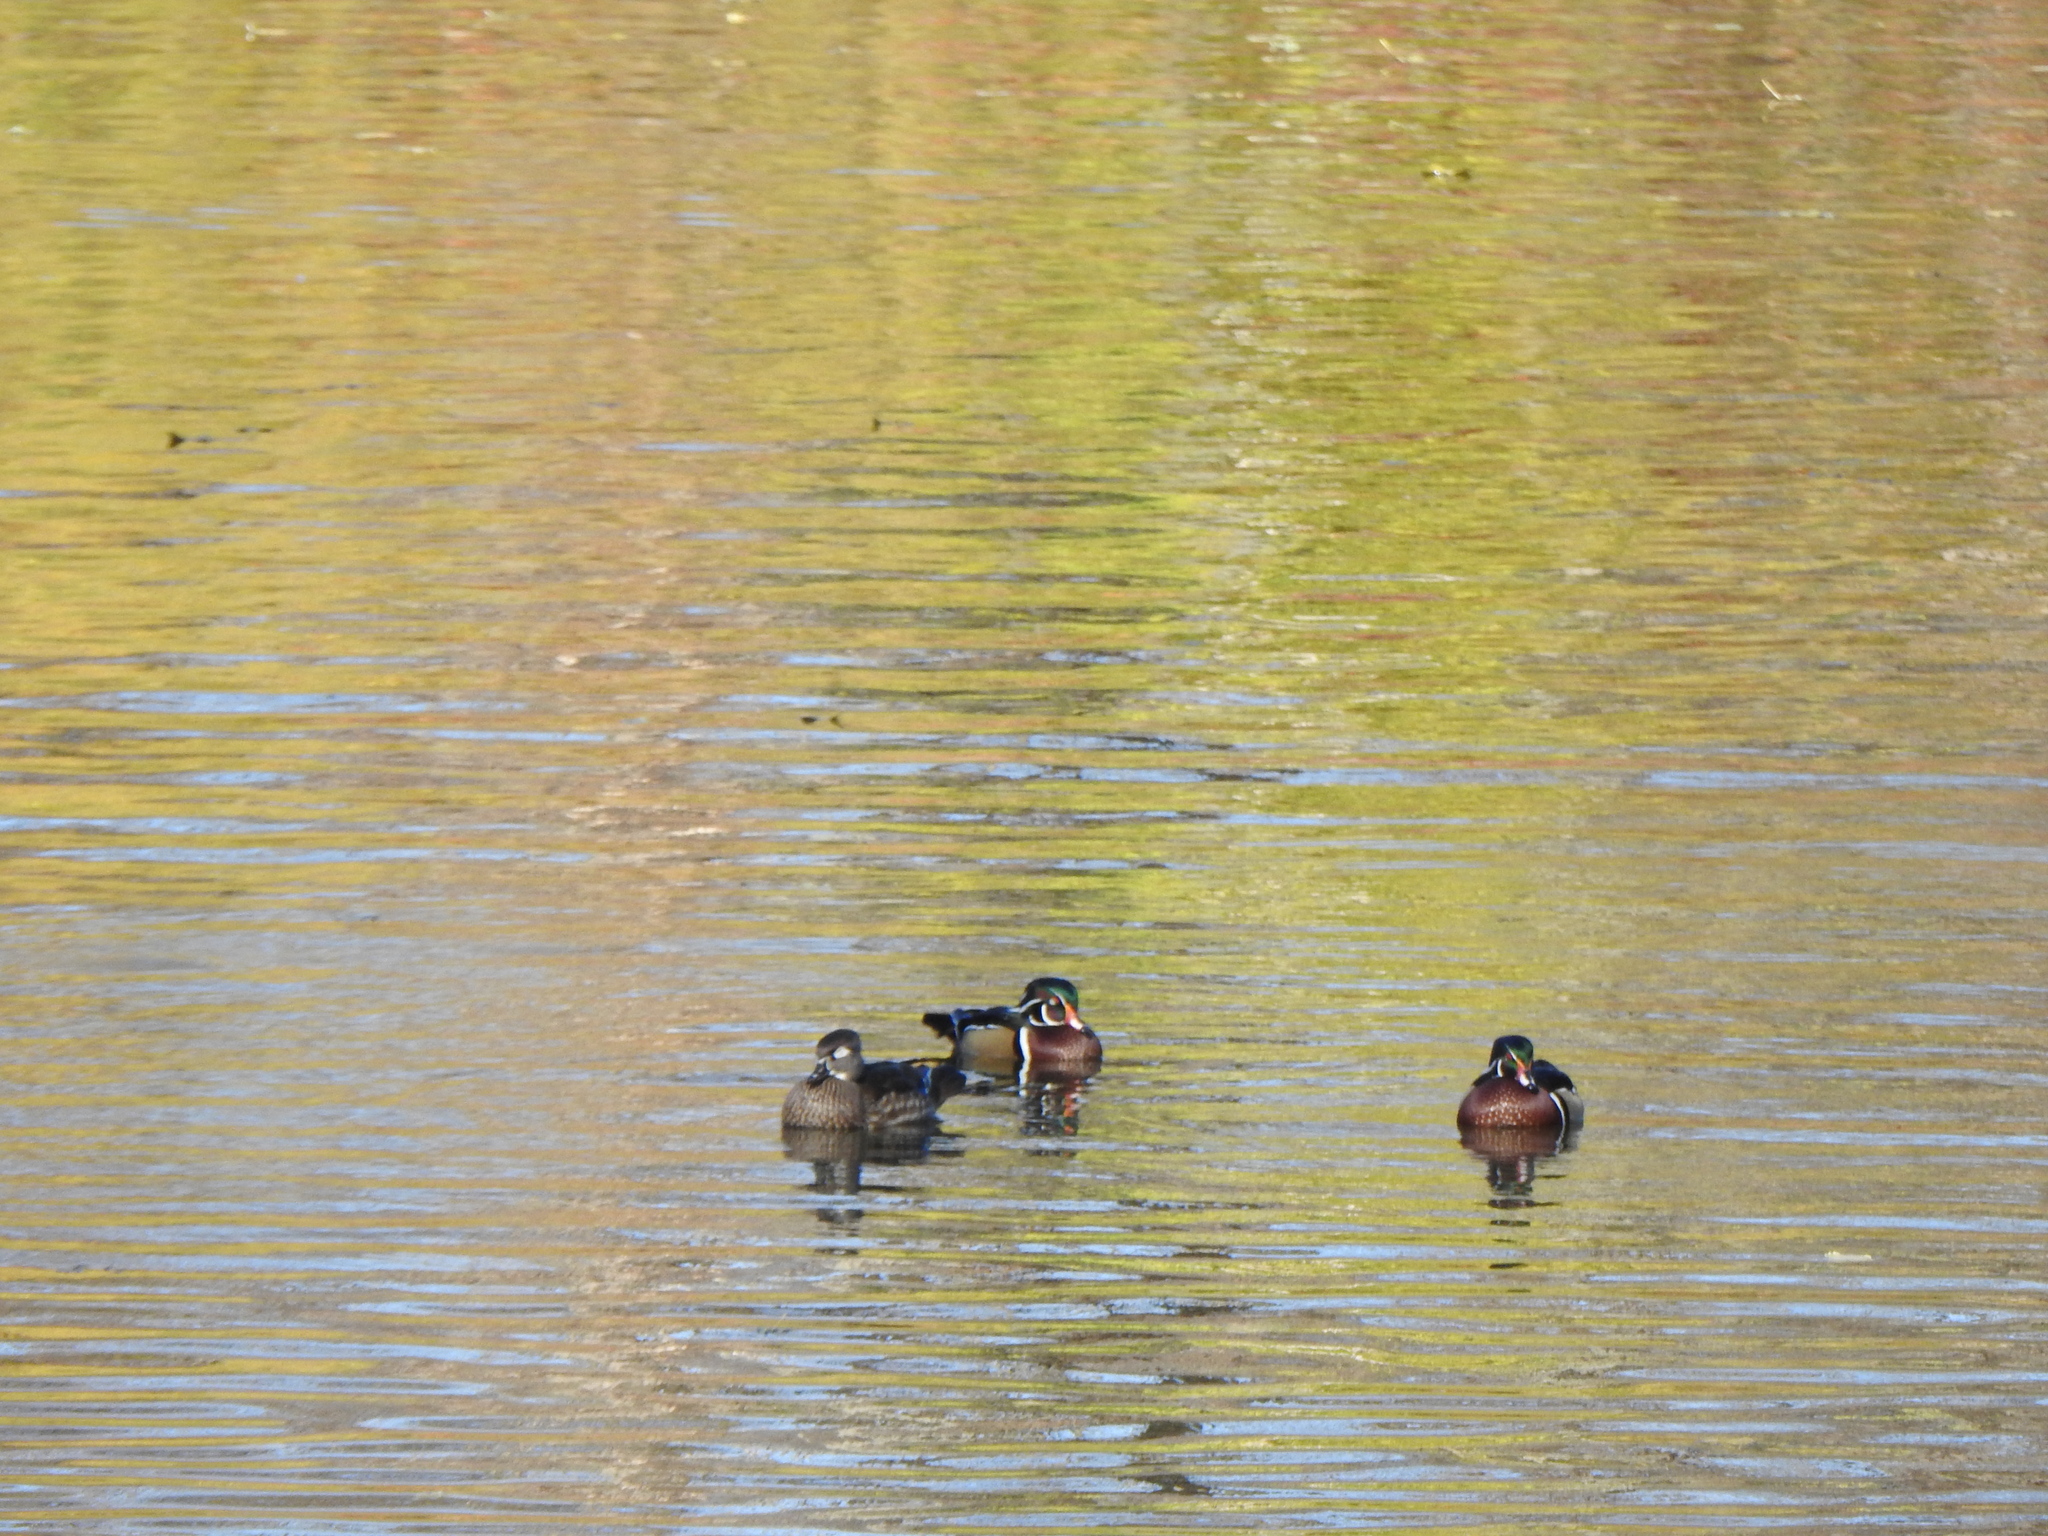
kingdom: Animalia
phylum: Chordata
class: Aves
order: Anseriformes
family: Anatidae
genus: Aix
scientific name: Aix sponsa
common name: Wood duck
